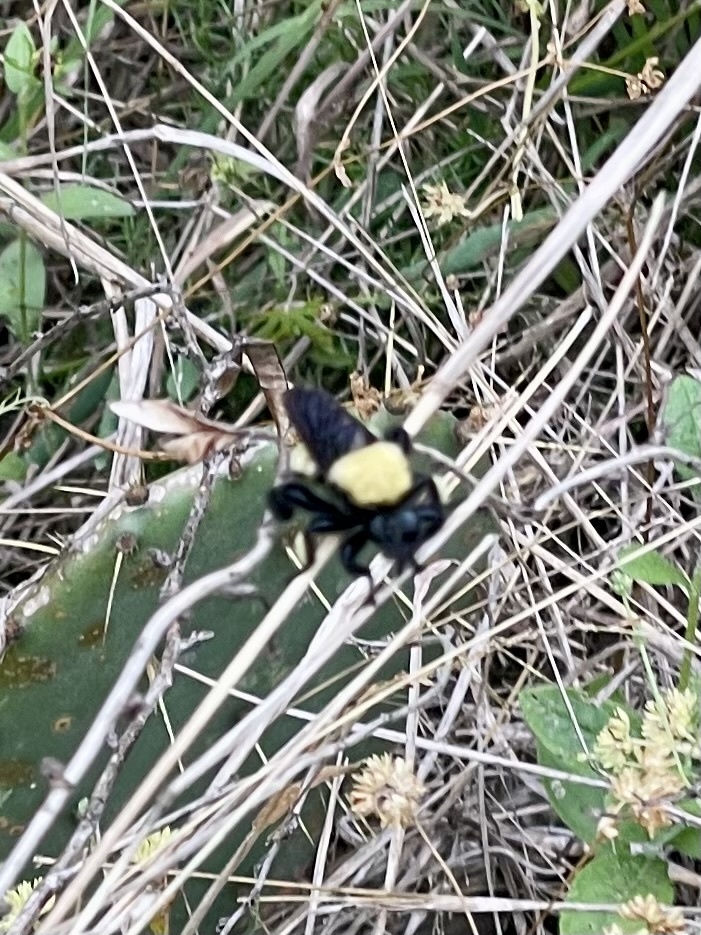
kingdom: Animalia
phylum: Arthropoda
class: Insecta
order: Diptera
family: Asilidae
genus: Laphria
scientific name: Laphria macquarti
